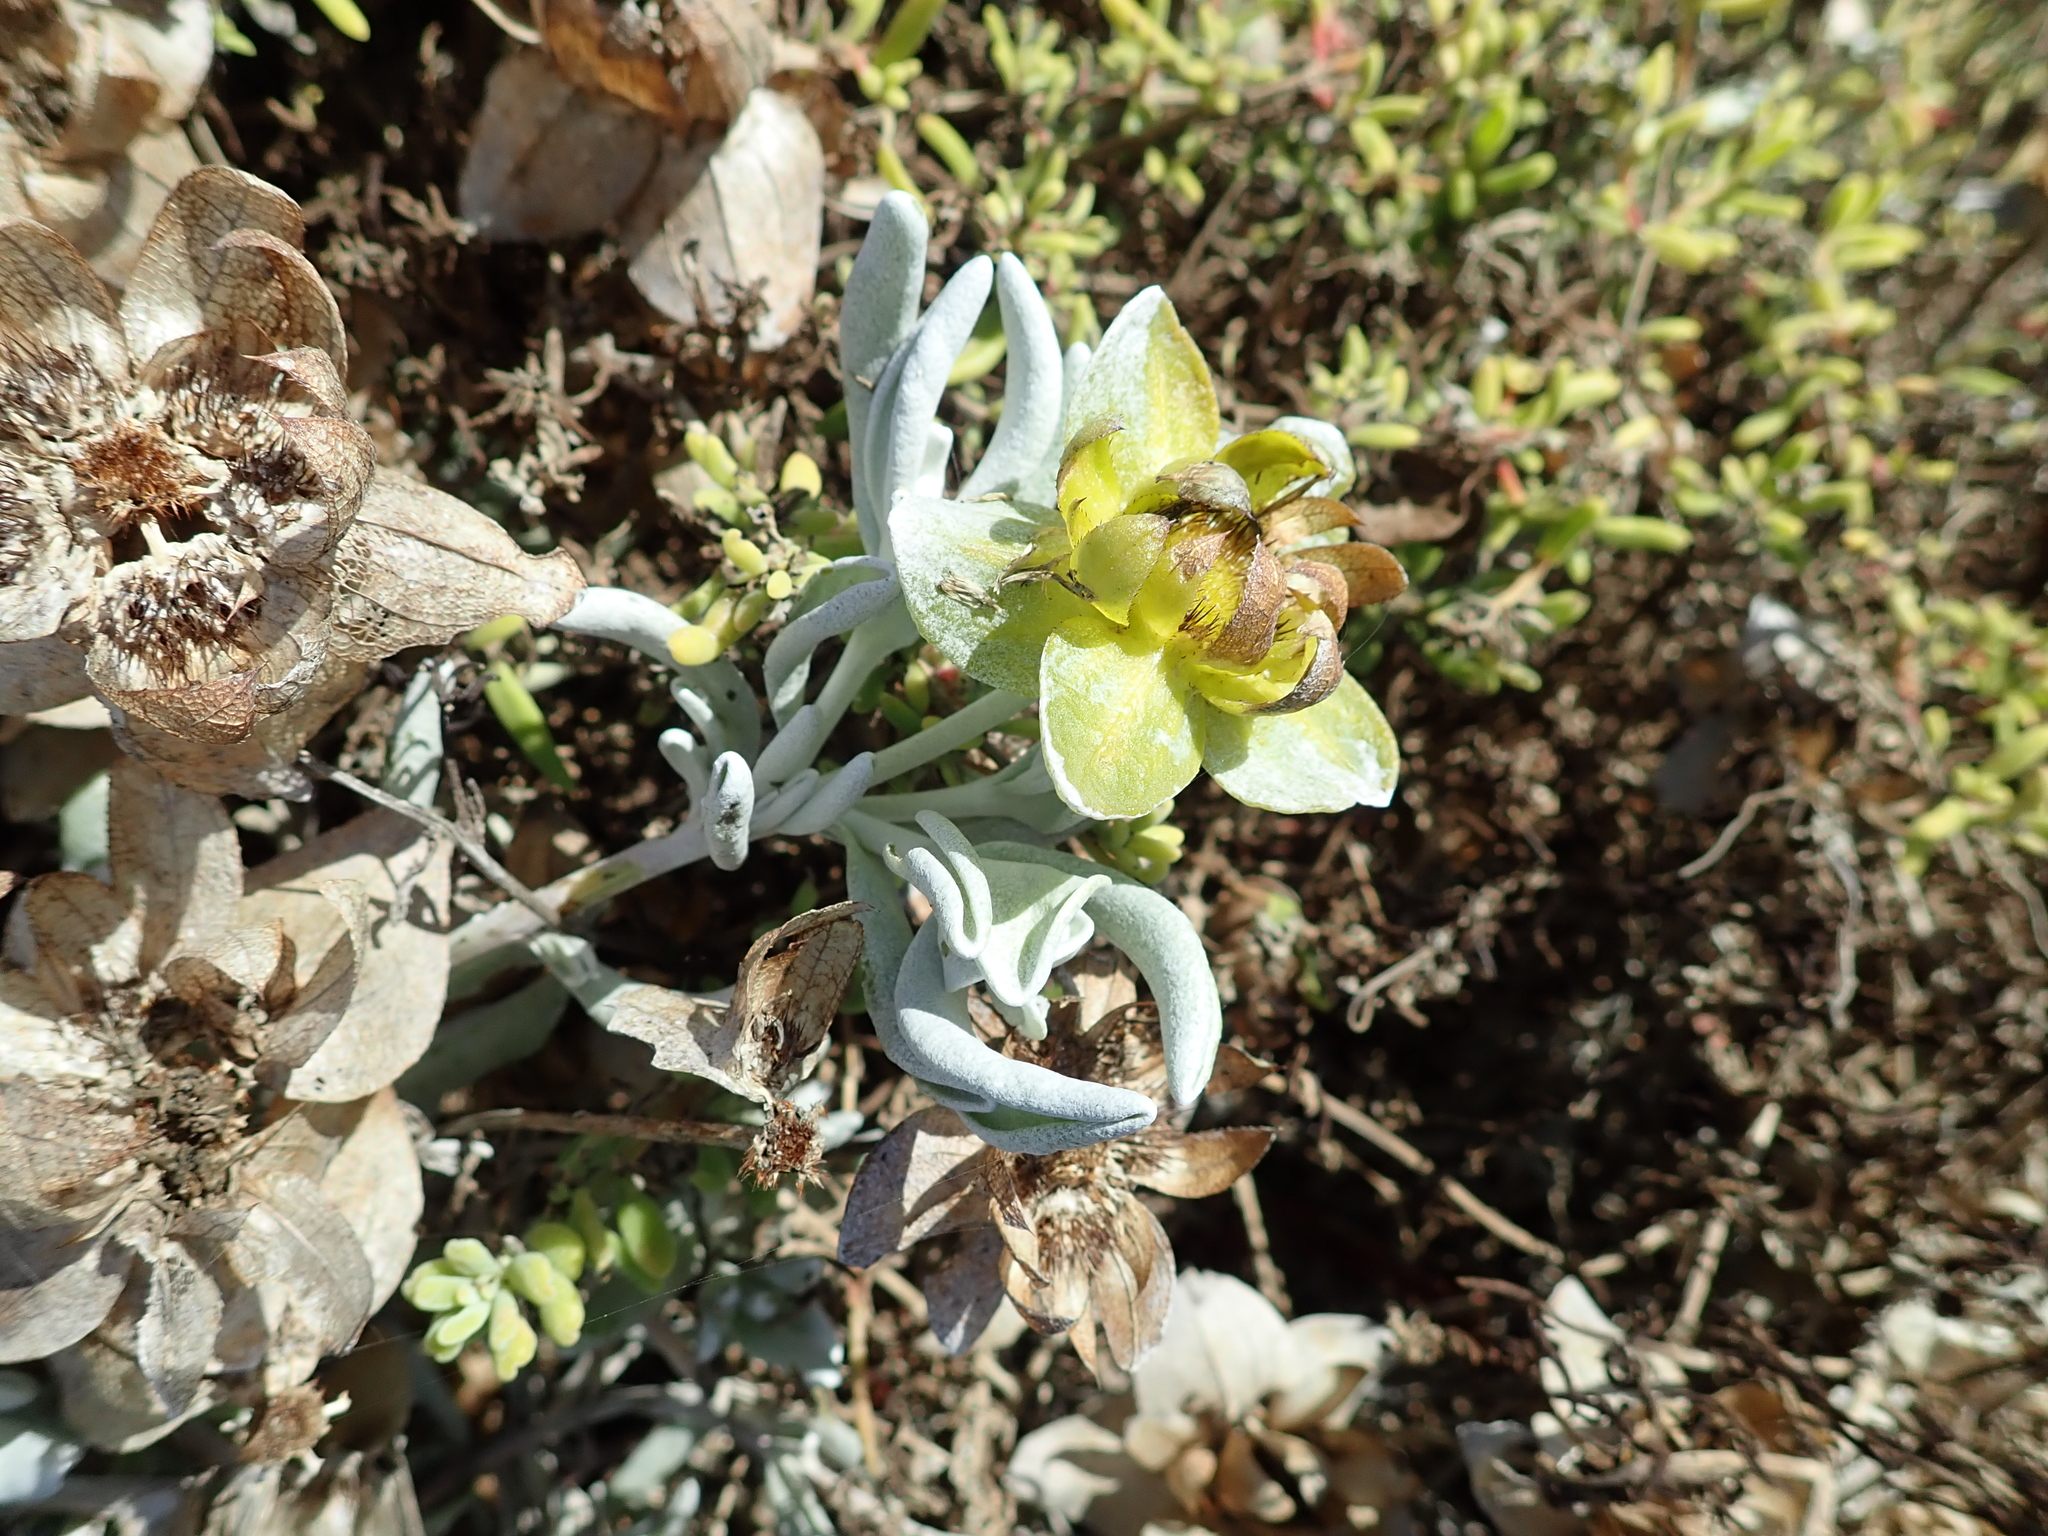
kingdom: Plantae
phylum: Tracheophyta
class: Magnoliopsida
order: Asterales
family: Asteraceae
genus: Didelta
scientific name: Didelta carnosa
